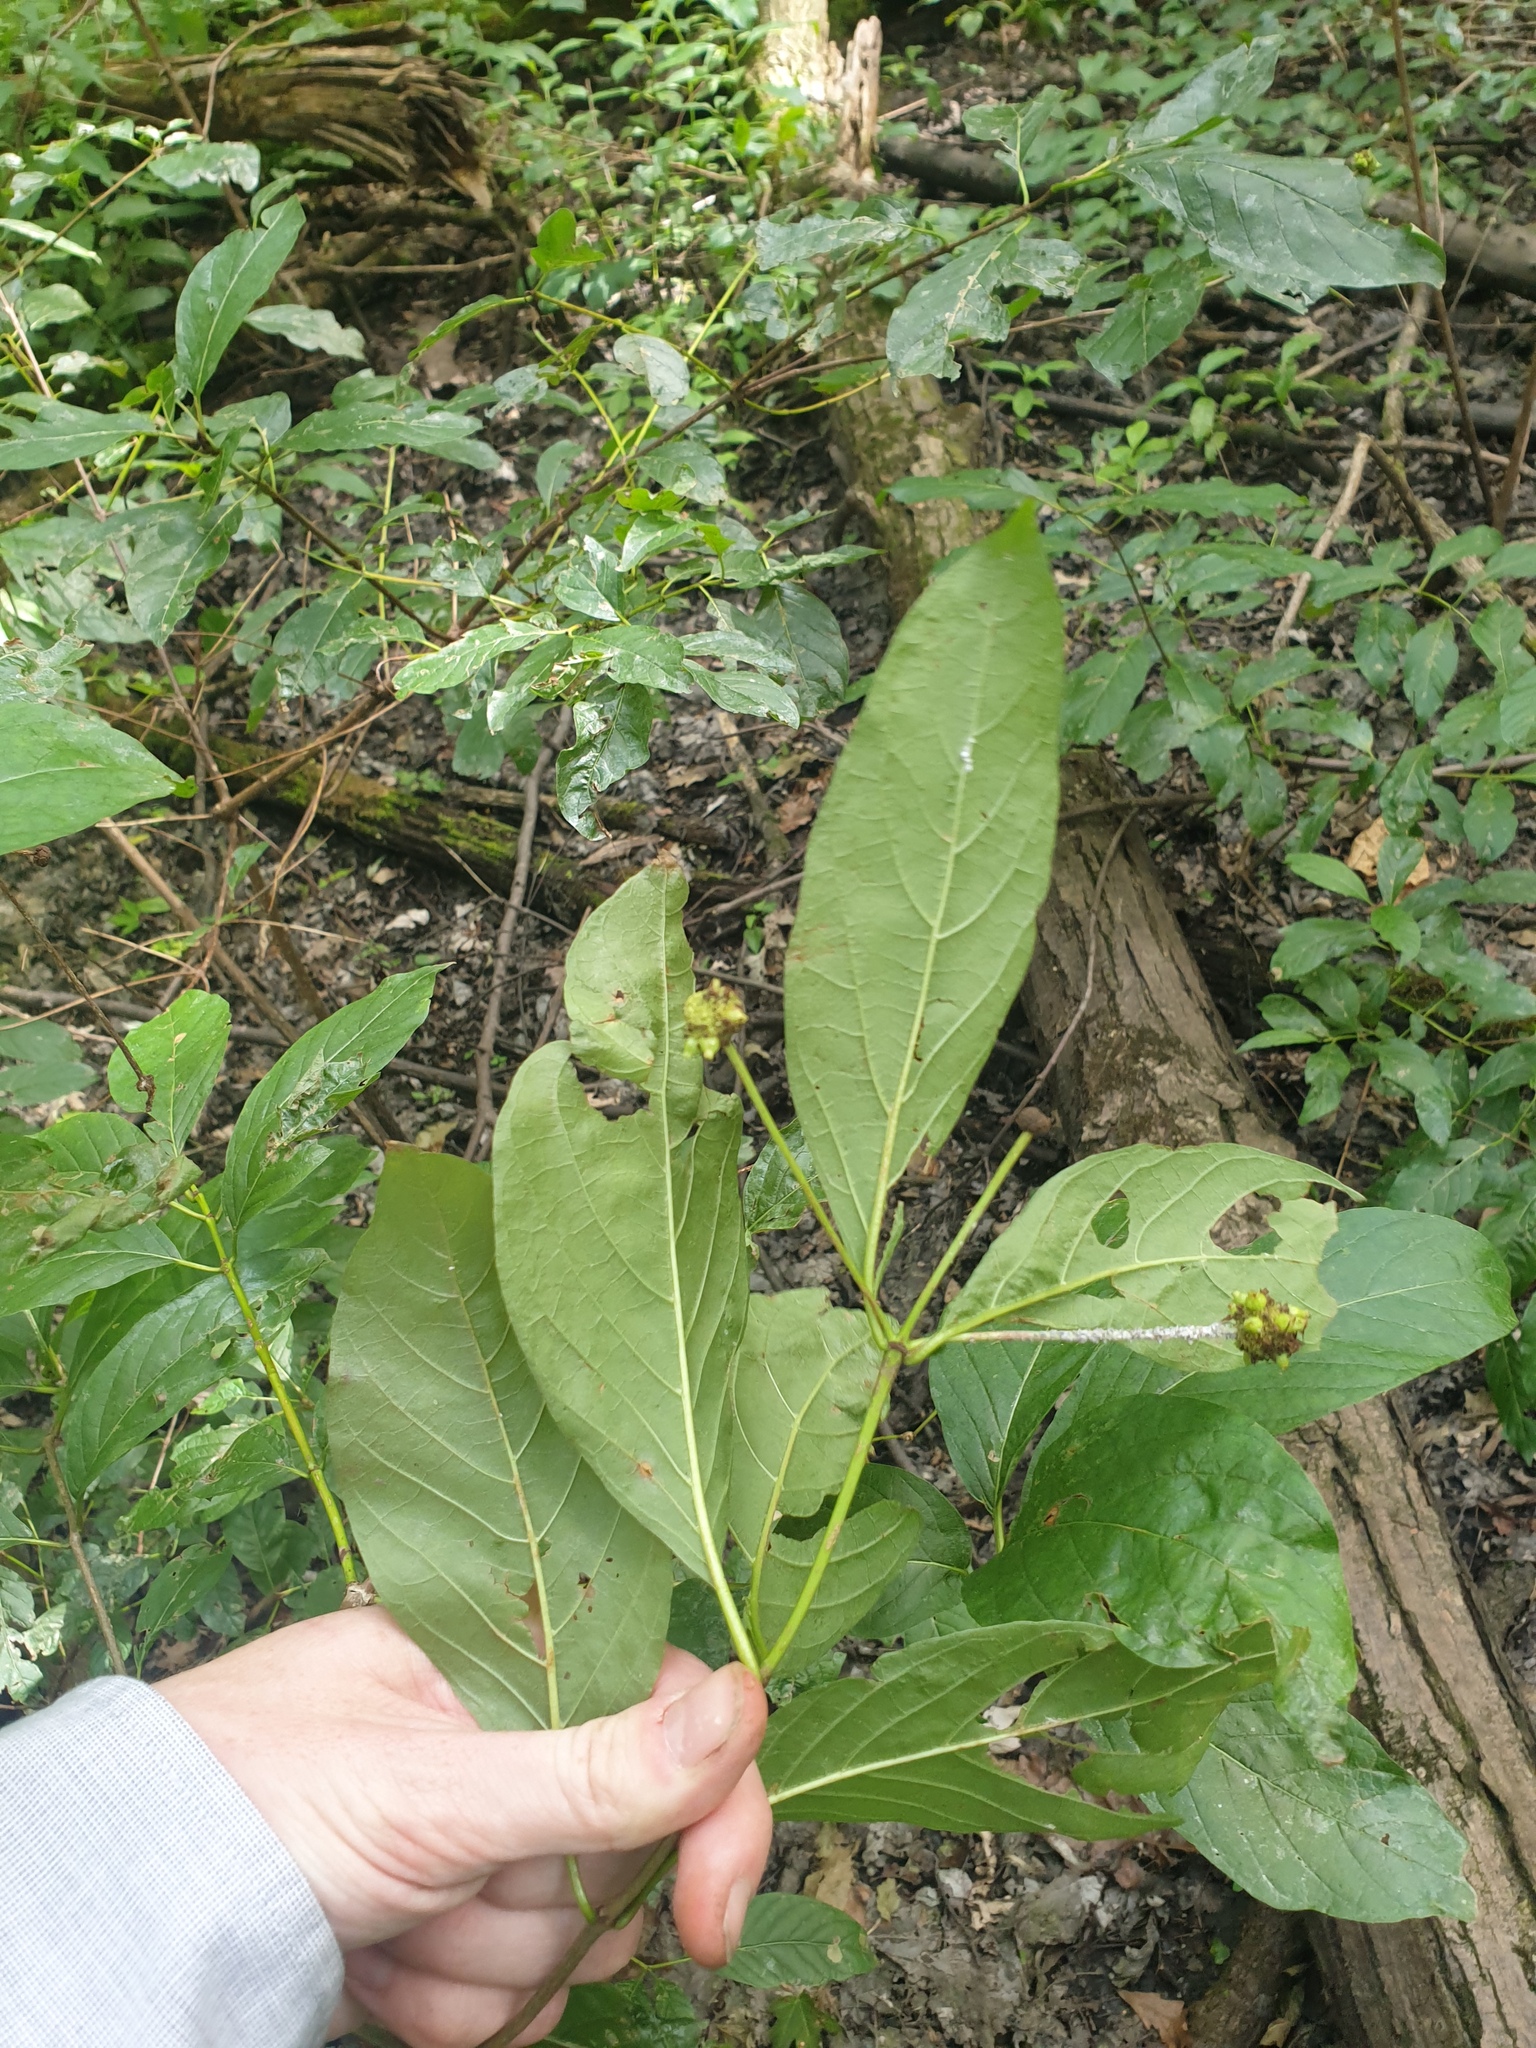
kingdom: Plantae
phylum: Tracheophyta
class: Magnoliopsida
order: Gentianales
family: Rubiaceae
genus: Cephalanthus
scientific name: Cephalanthus occidentalis
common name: Button-willow
